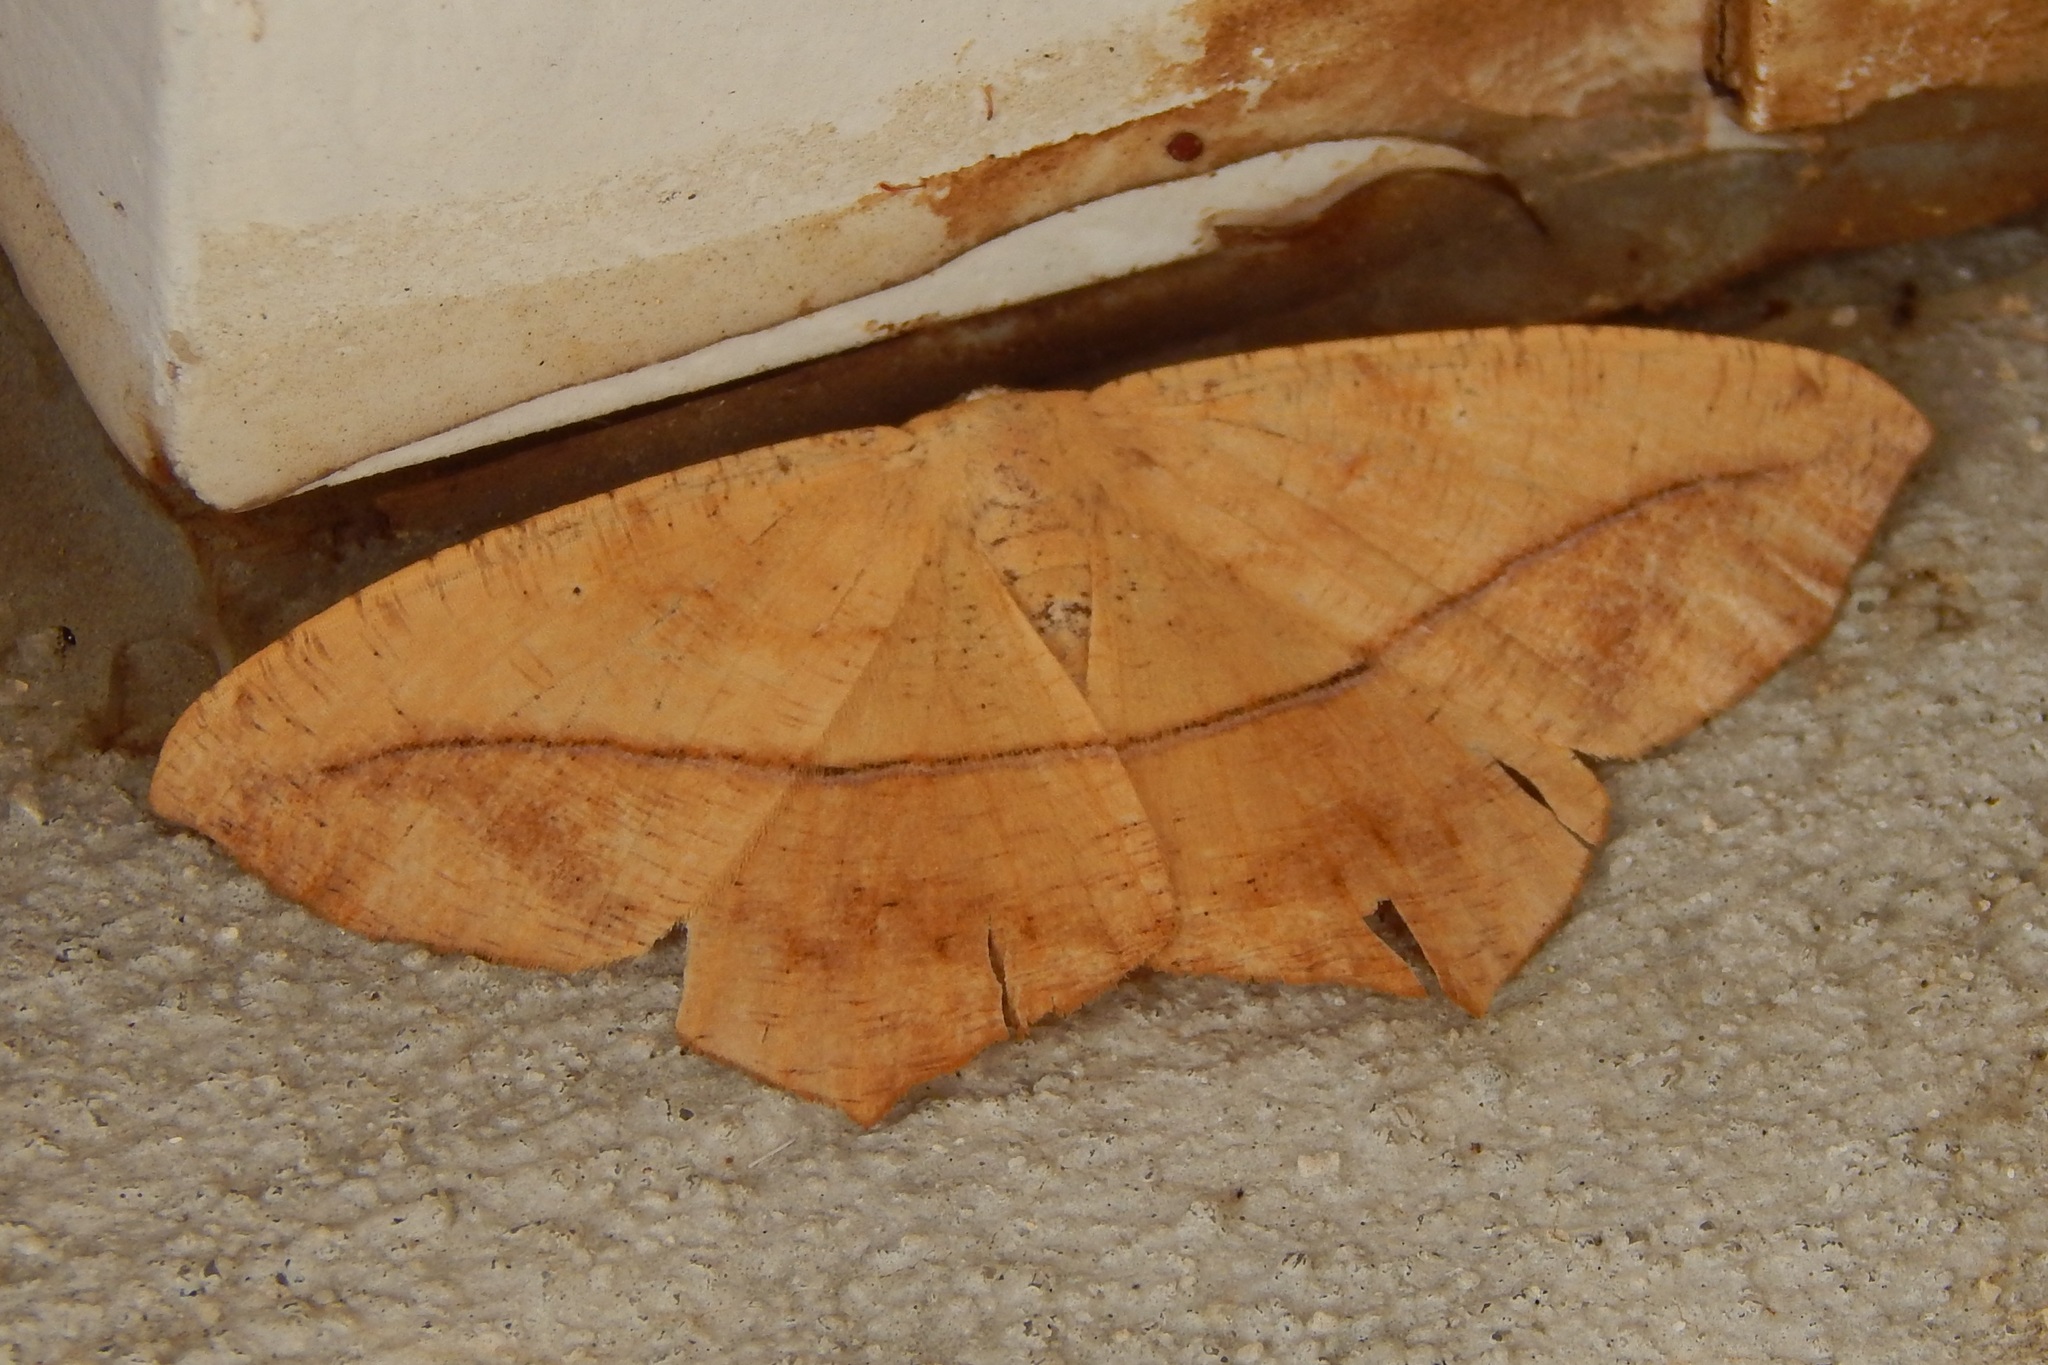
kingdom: Animalia
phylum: Arthropoda
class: Insecta
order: Lepidoptera
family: Geometridae
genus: Prochoerodes
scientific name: Prochoerodes lineola
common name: Large maple spanworm
